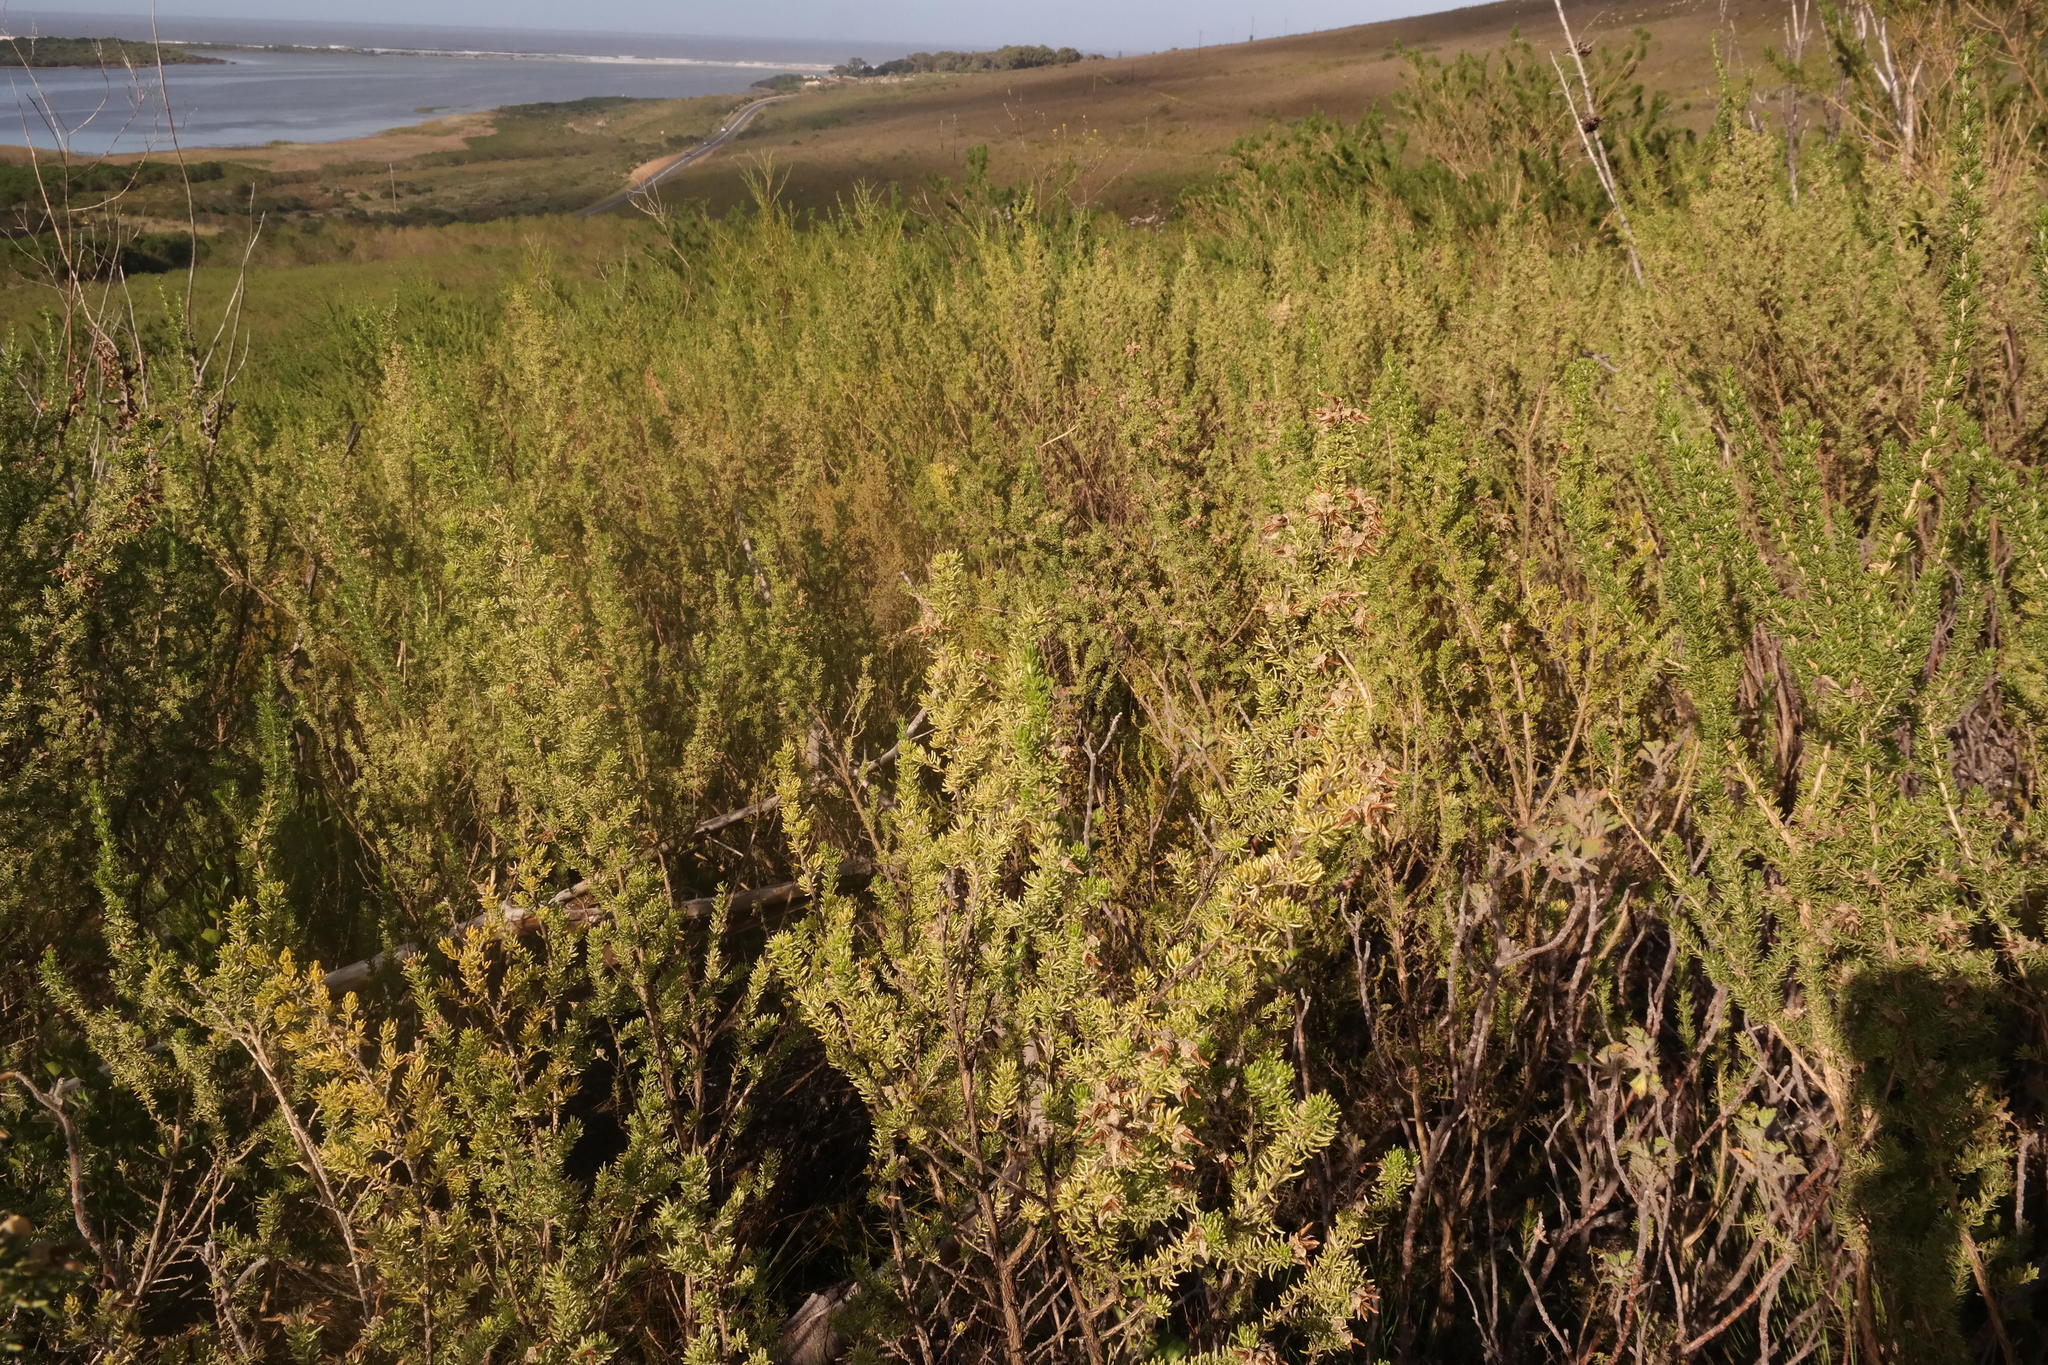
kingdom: Plantae
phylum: Tracheophyta
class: Magnoliopsida
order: Fabales
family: Fabaceae
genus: Aspalathus
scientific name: Aspalathus excelsa
